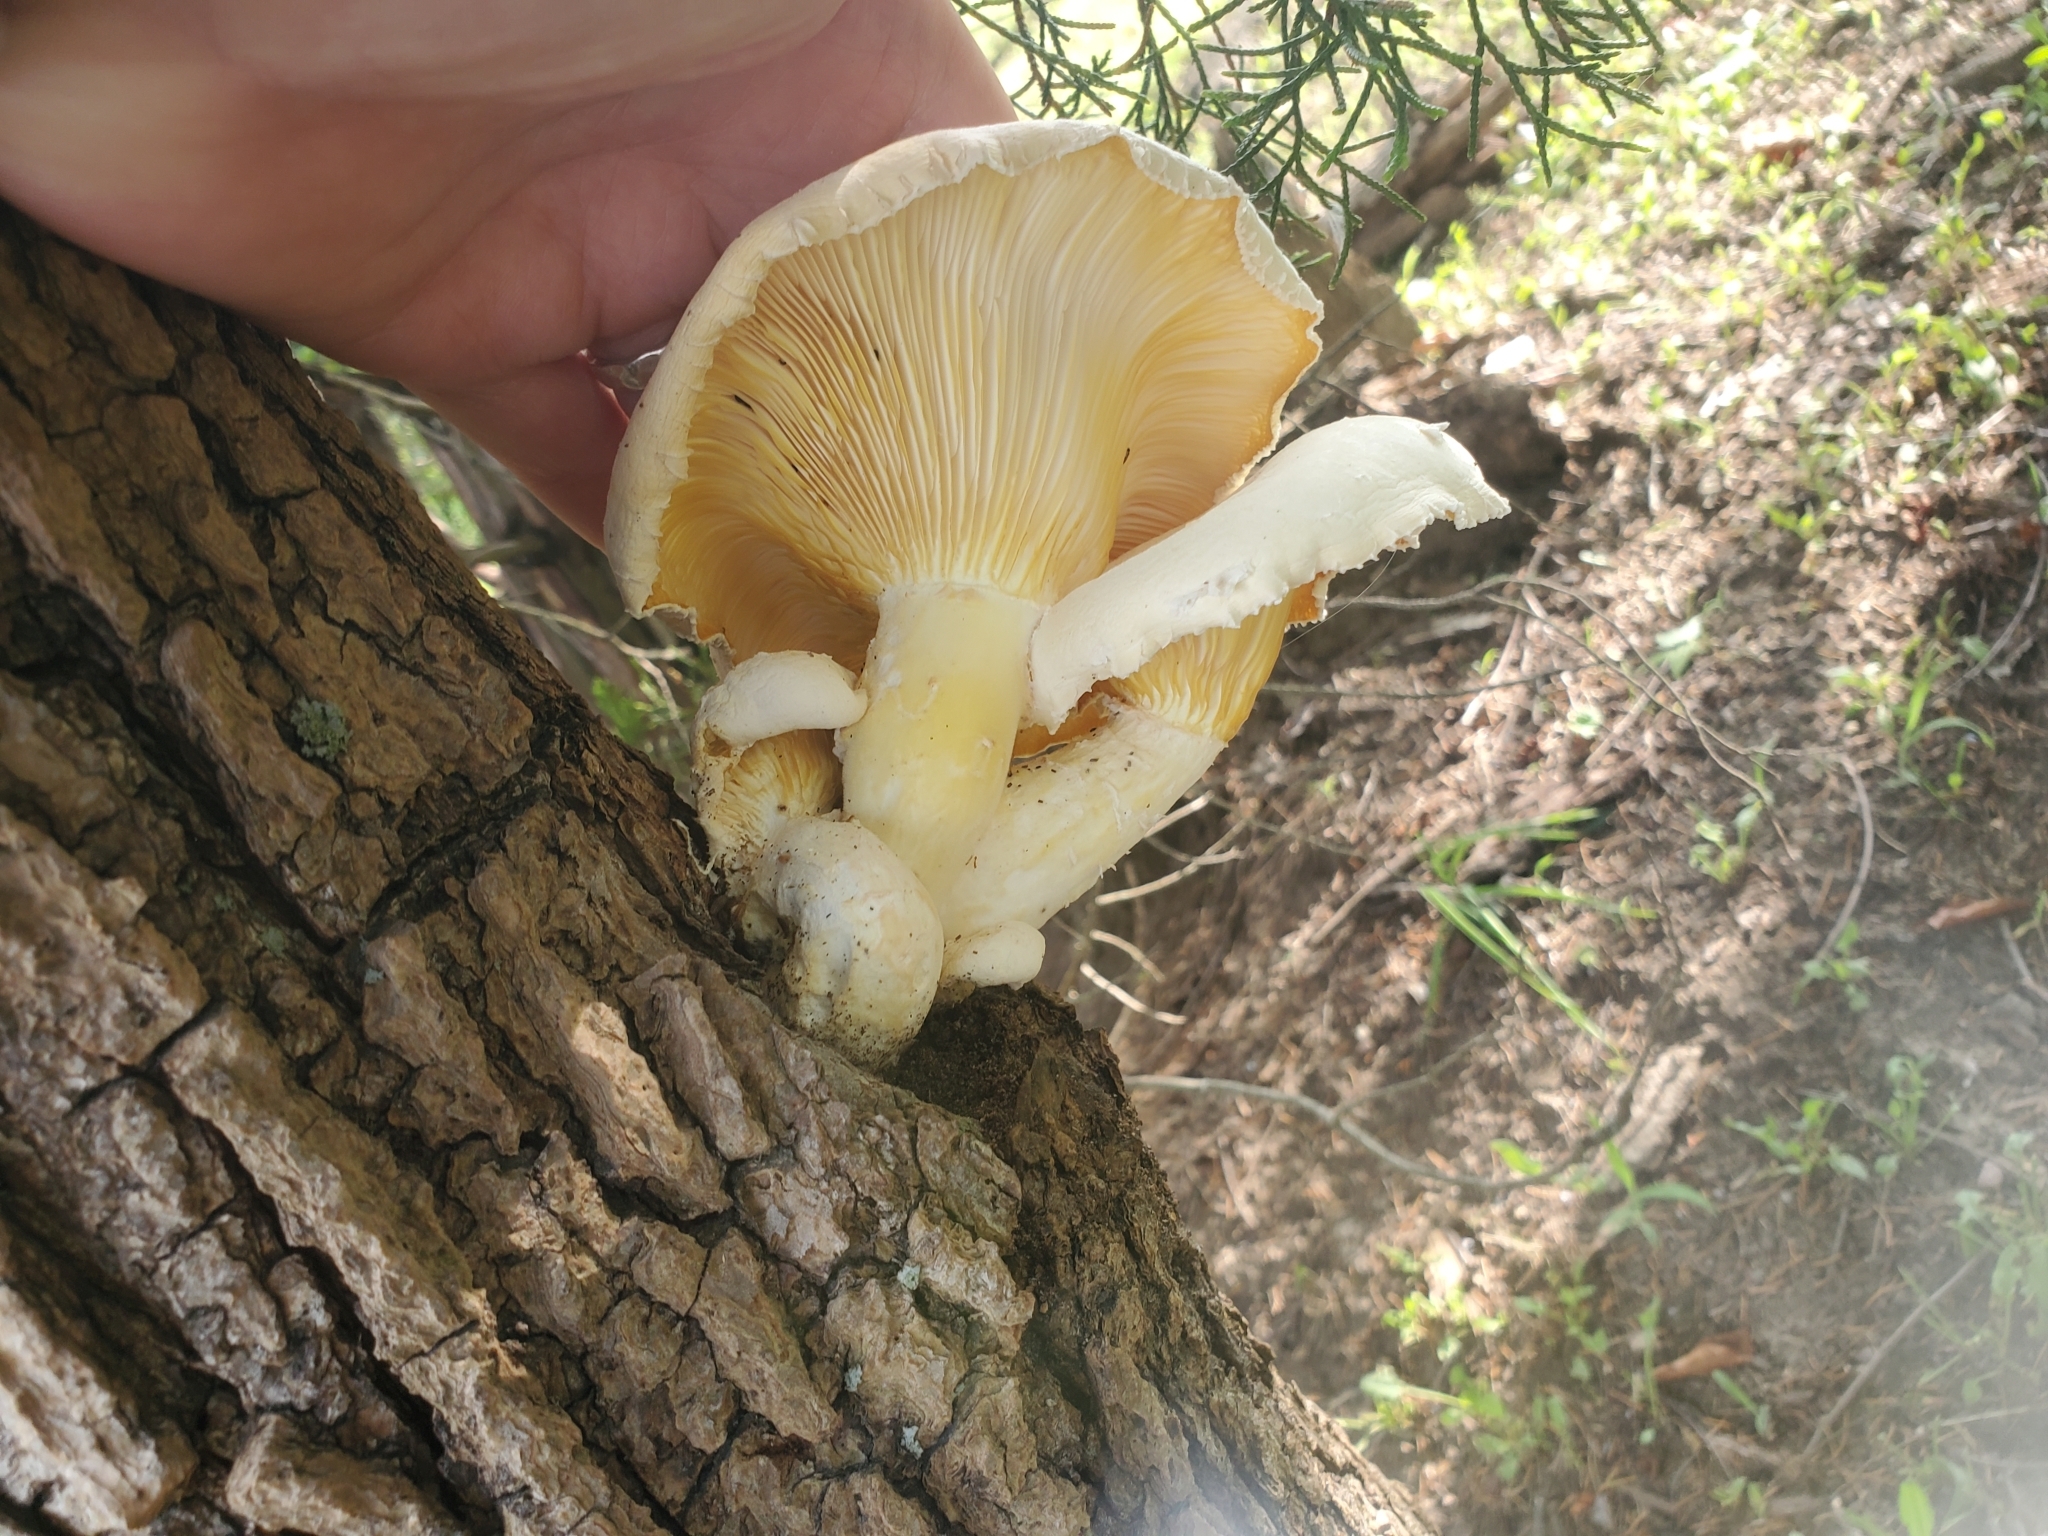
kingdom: Fungi
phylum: Basidiomycota
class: Agaricomycetes
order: Polyporales
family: Polyporaceae
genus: Lentinus
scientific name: Lentinus levis
